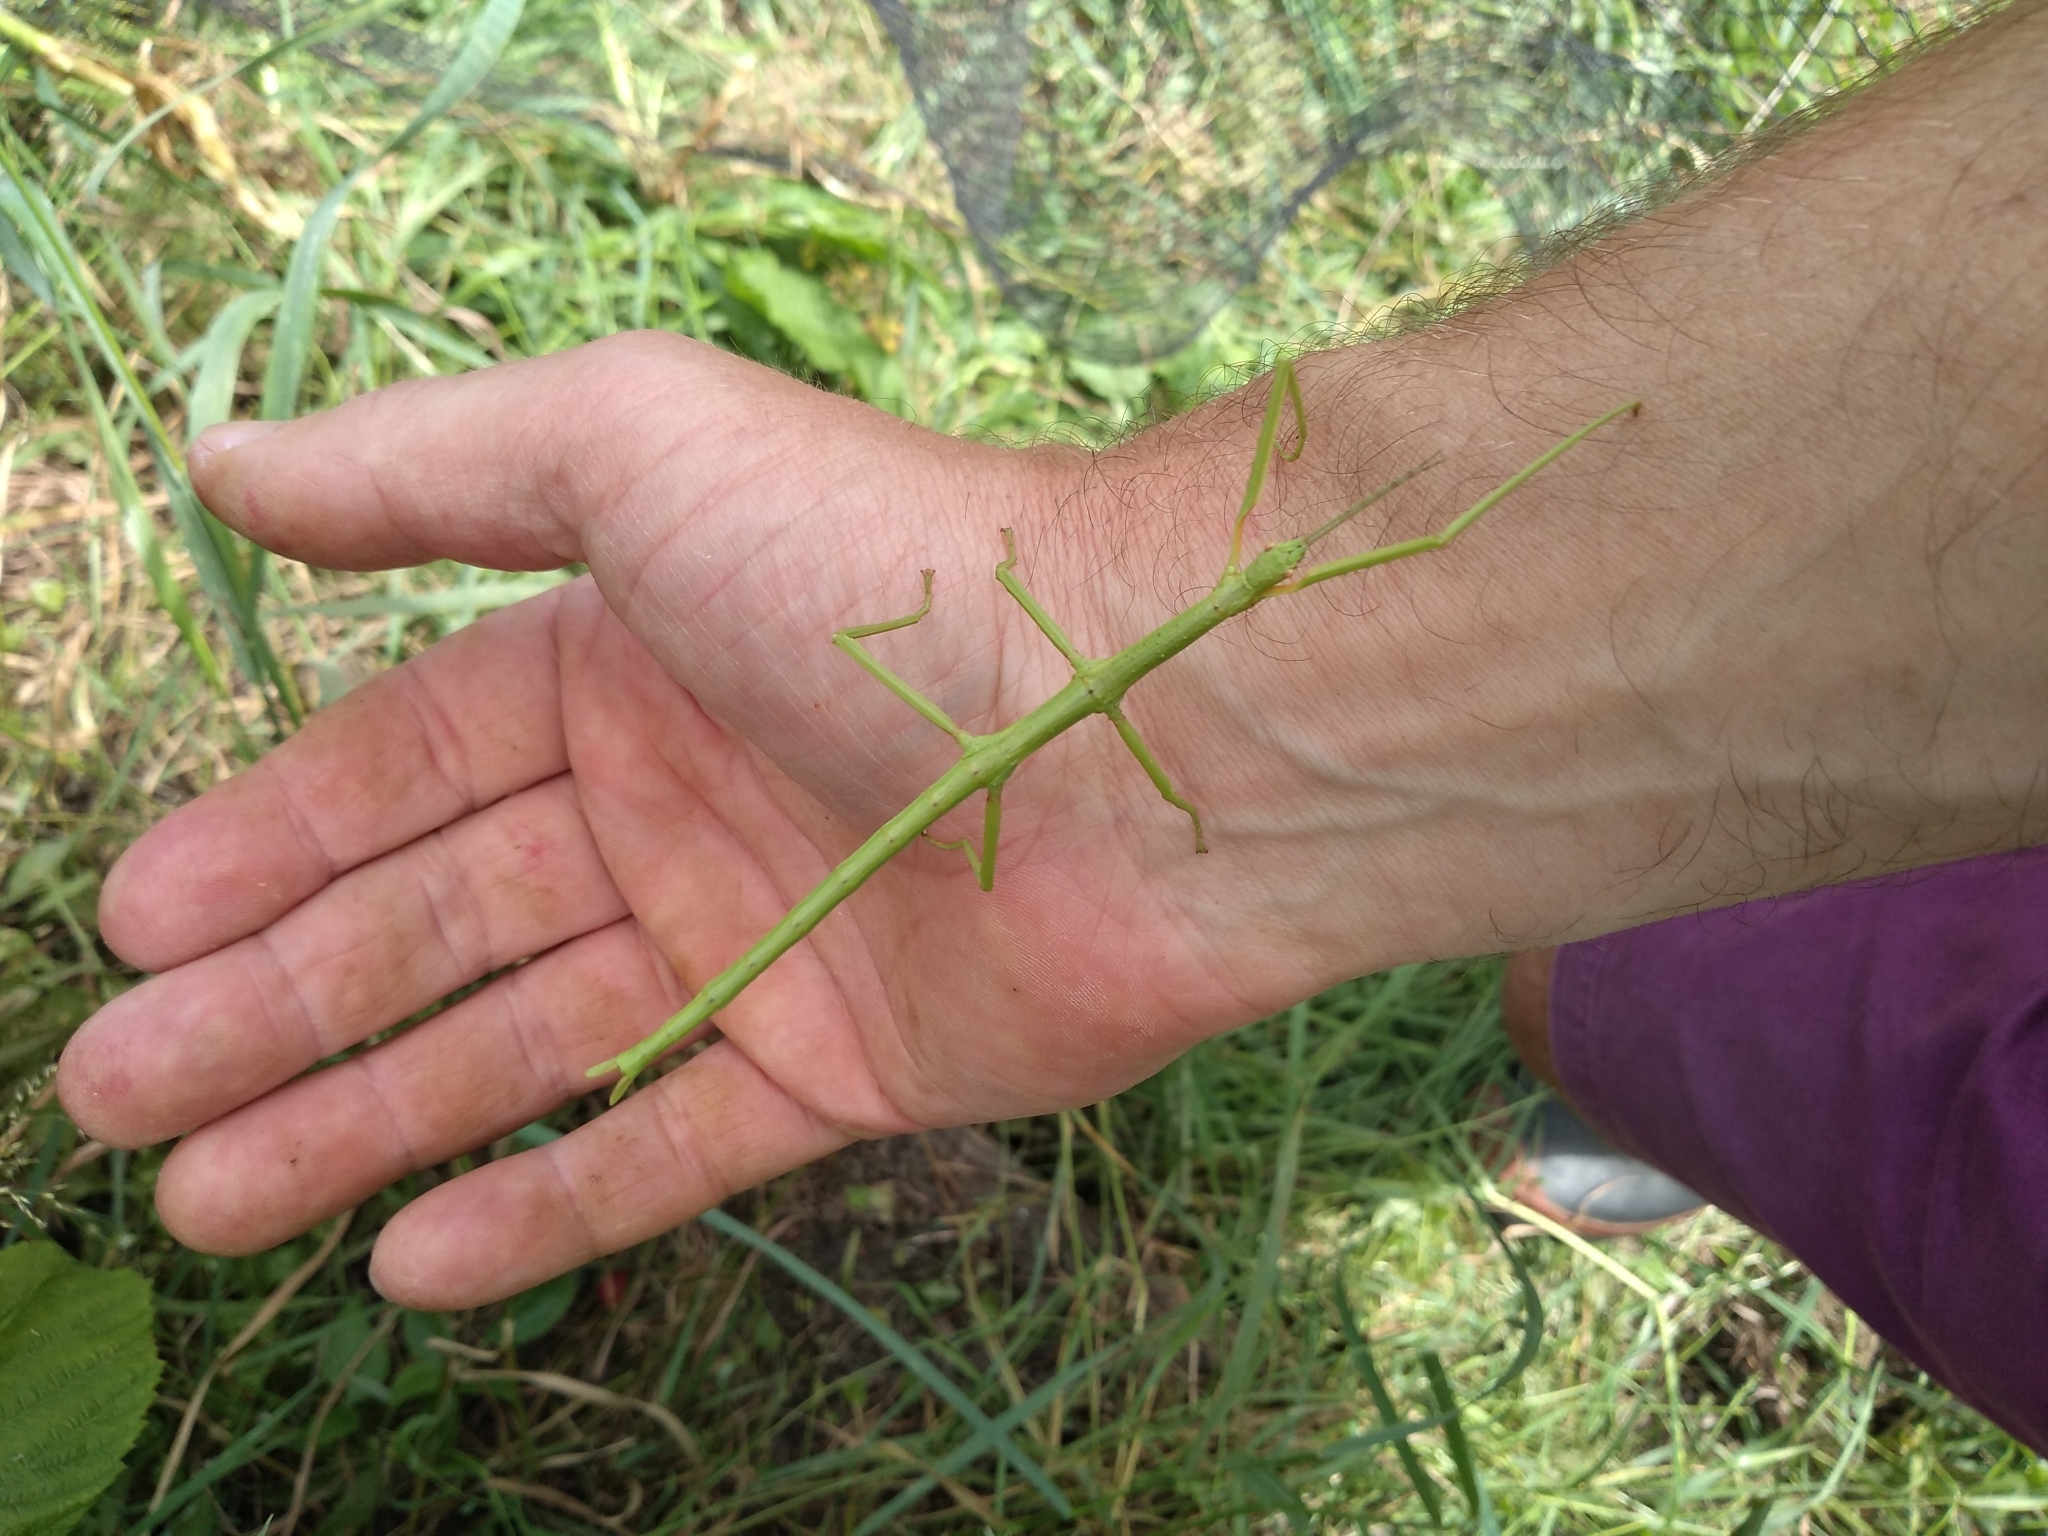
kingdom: Animalia
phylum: Arthropoda
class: Insecta
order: Phasmida
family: Phasmatidae
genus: Acanthoxyla
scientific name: Acanthoxyla inermis
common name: Unarmed stick insect
